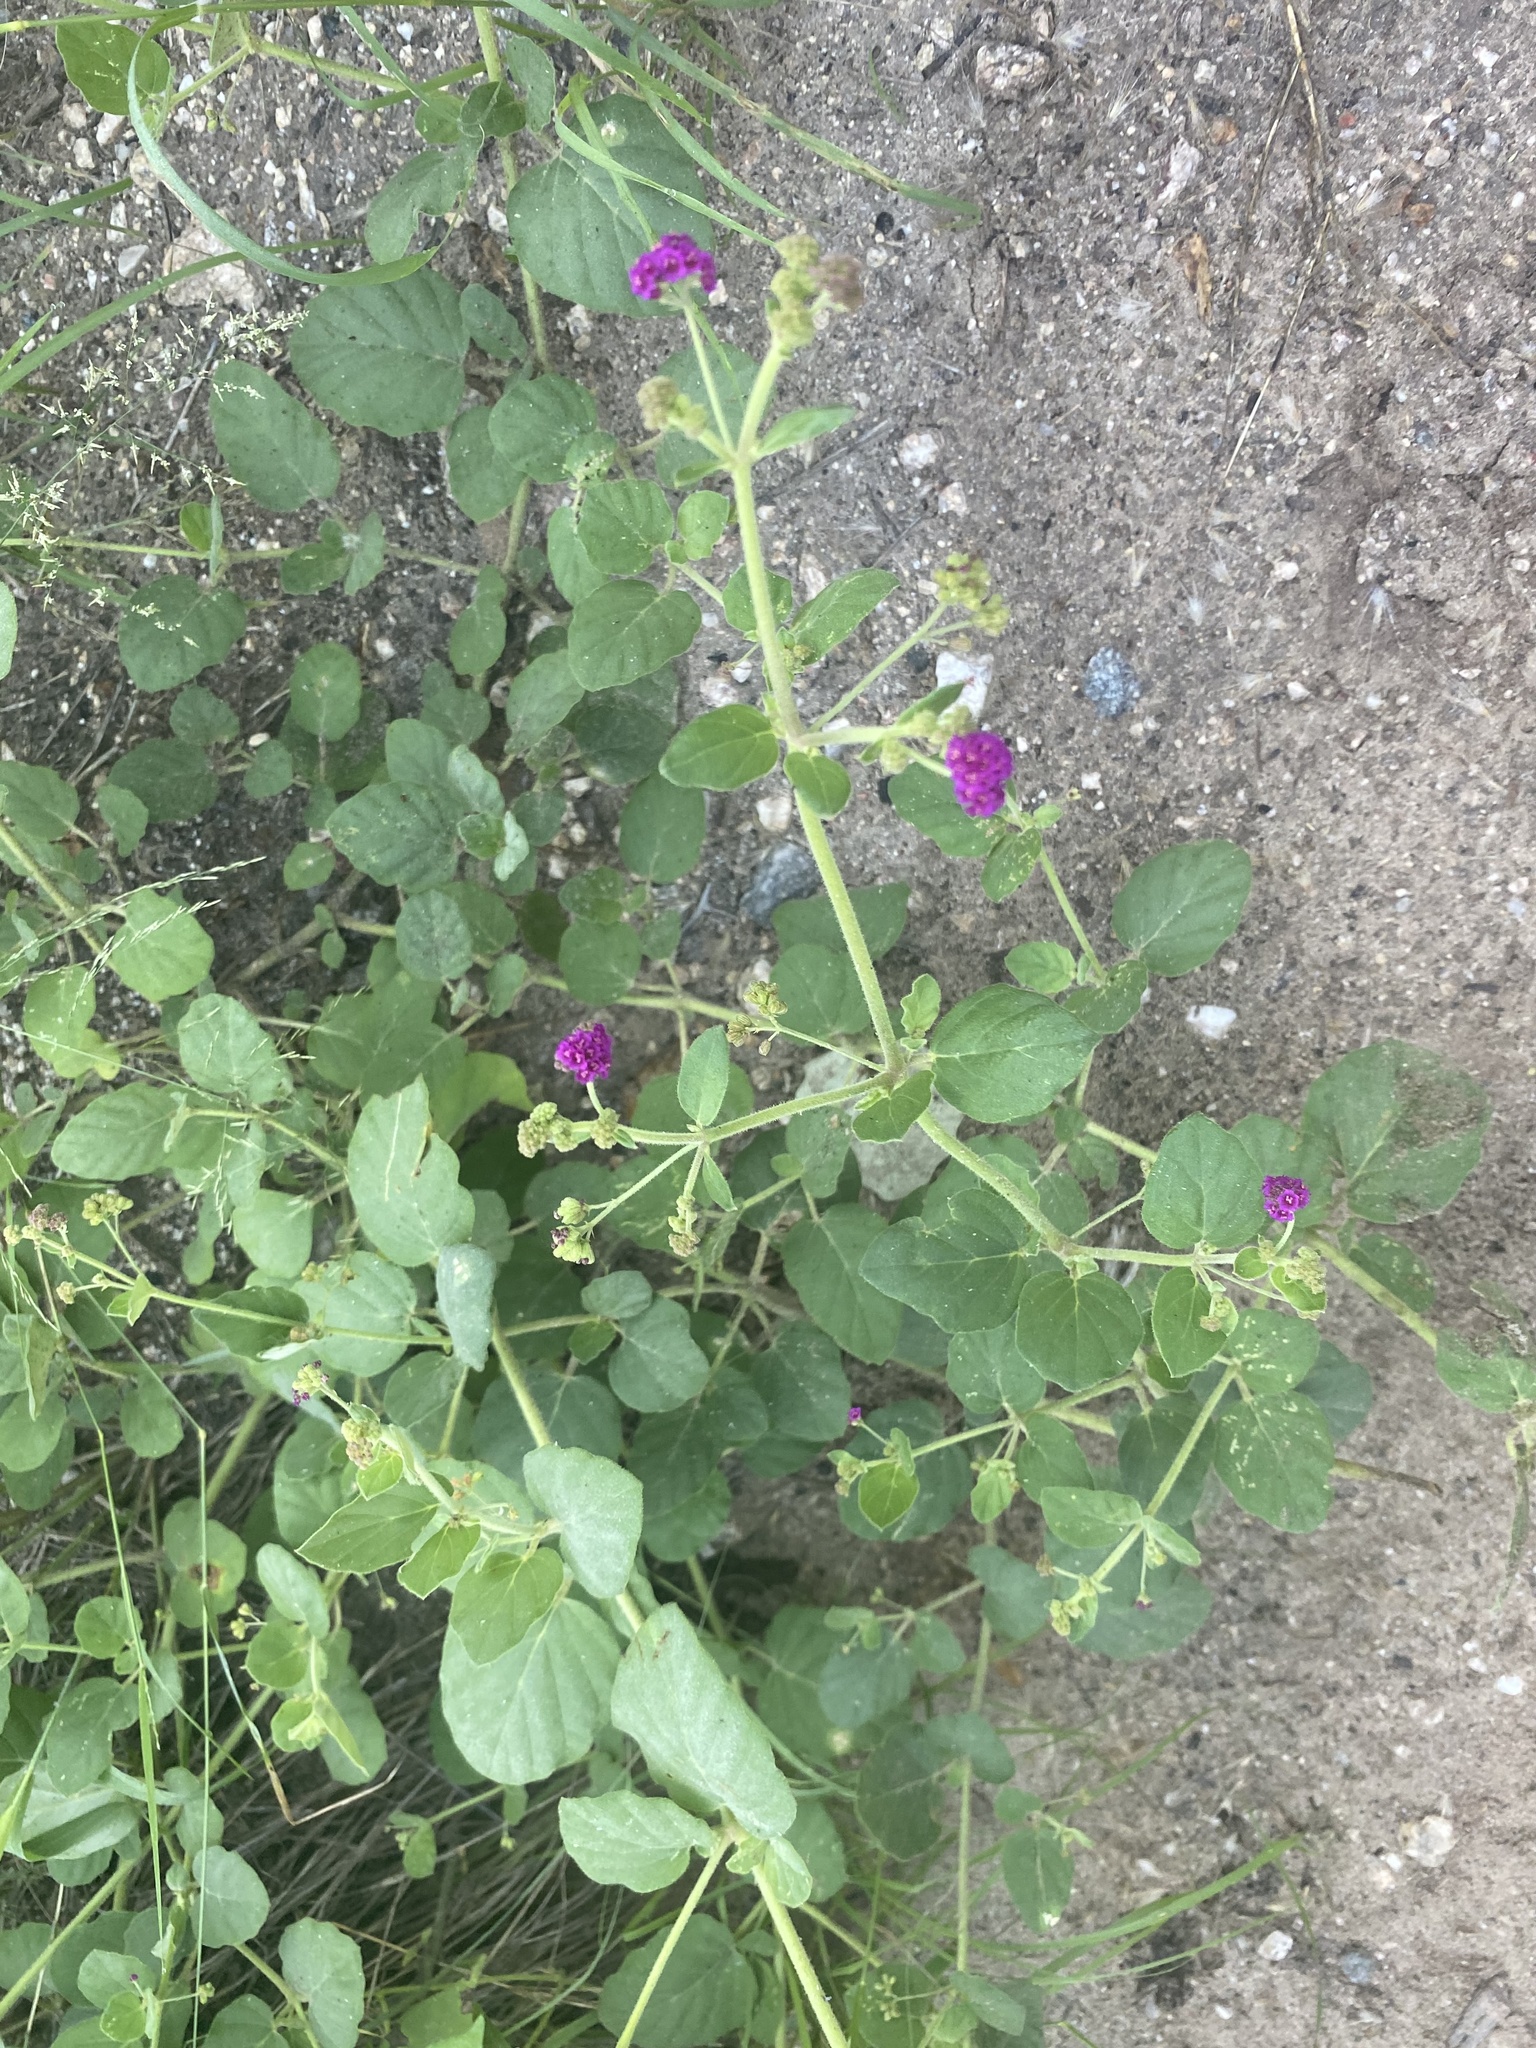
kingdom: Plantae
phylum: Tracheophyta
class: Magnoliopsida
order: Caryophyllales
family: Nyctaginaceae
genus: Boerhavia
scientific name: Boerhavia coccinea
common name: Scarlet spiderling
